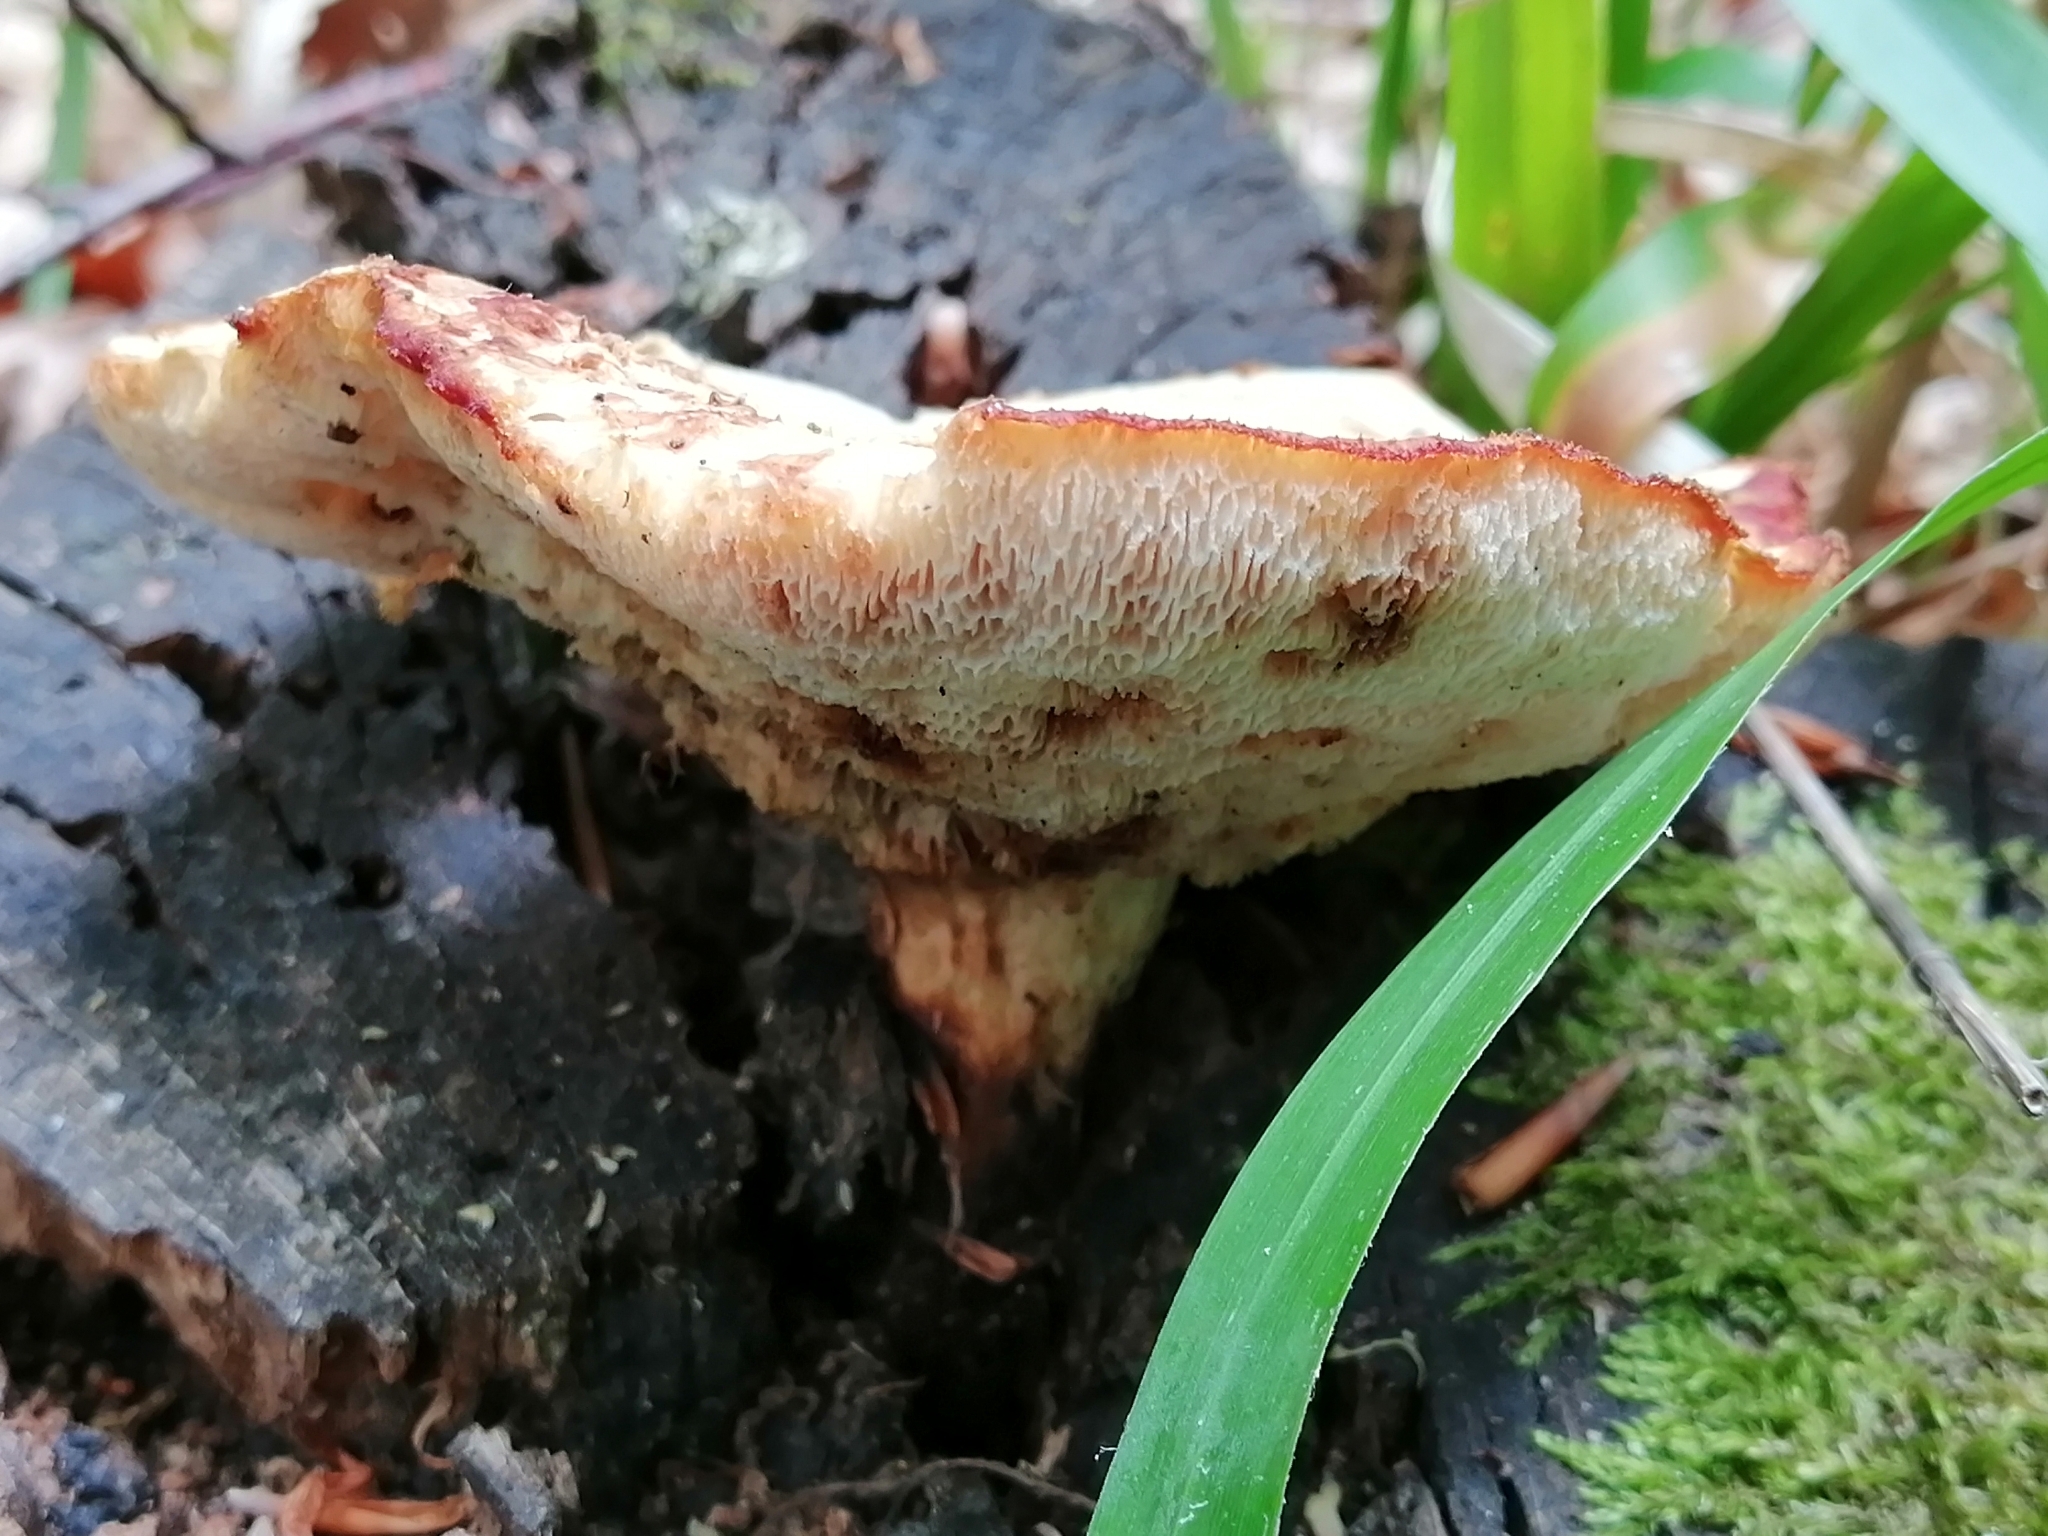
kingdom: Fungi
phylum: Basidiomycota
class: Agaricomycetes
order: Polyporales
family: Polyporaceae
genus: Polyporus
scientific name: Polyporus tuberaster
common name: Tuberous polypore
